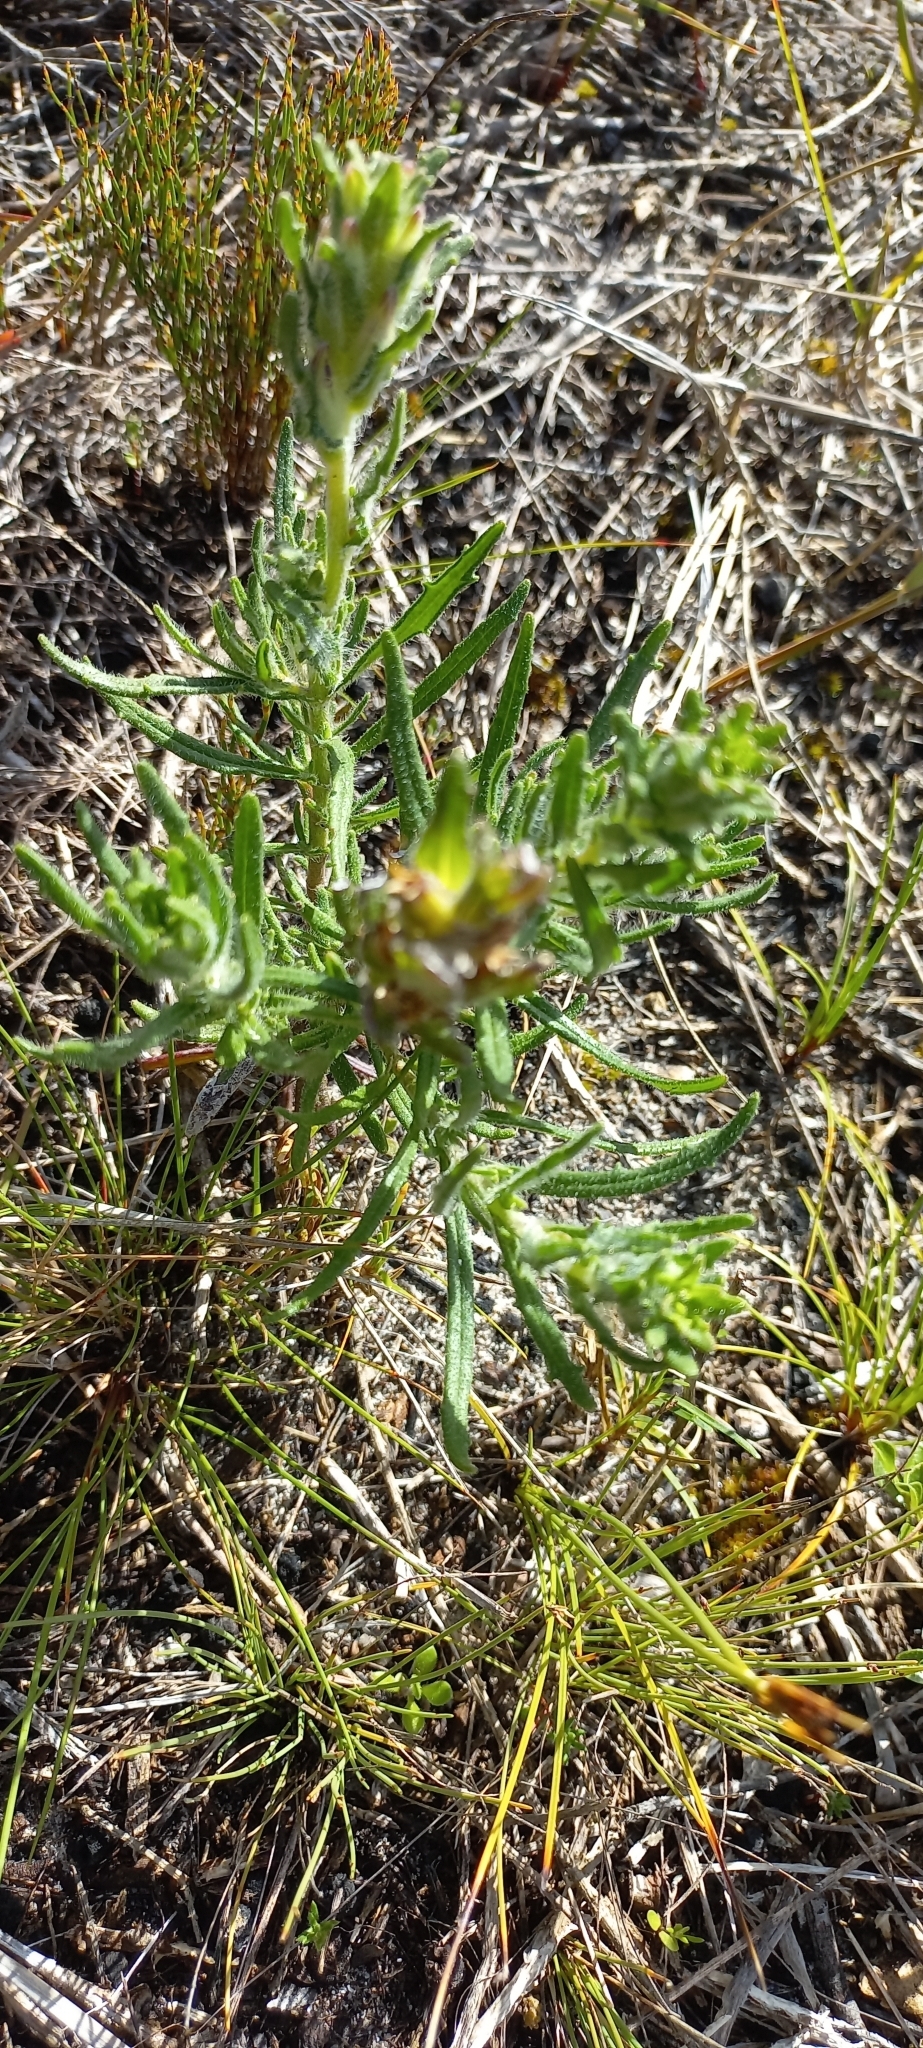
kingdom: Plantae
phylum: Tracheophyta
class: Magnoliopsida
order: Lamiales
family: Scrophulariaceae
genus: Zaluzianskya
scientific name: Zaluzianskya capensis
